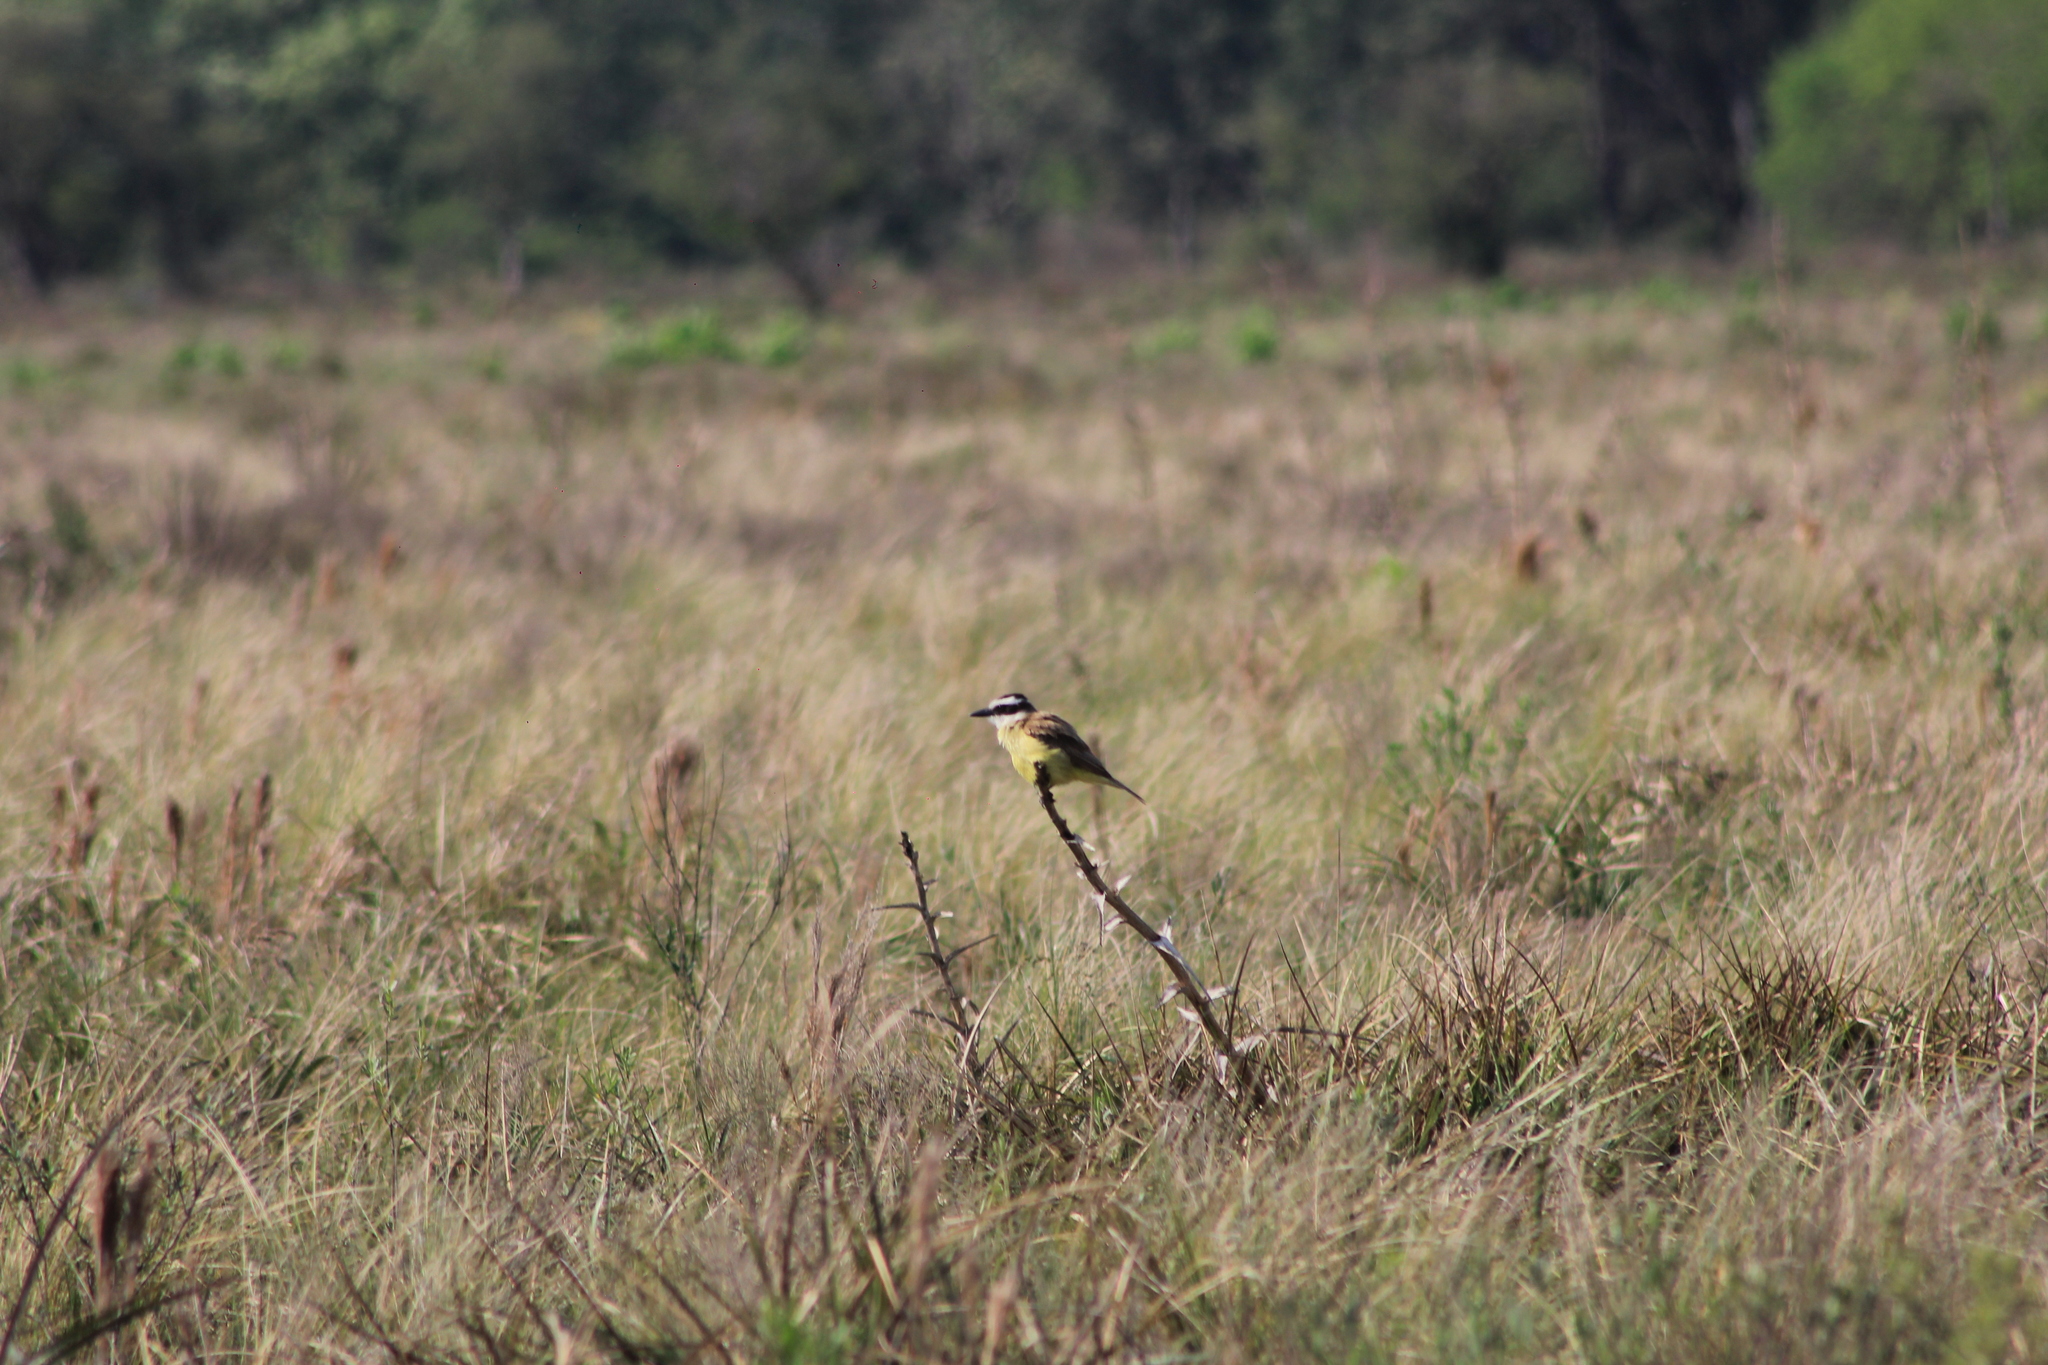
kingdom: Animalia
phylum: Chordata
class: Aves
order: Passeriformes
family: Tyrannidae
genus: Pitangus
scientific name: Pitangus sulphuratus
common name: Great kiskadee
